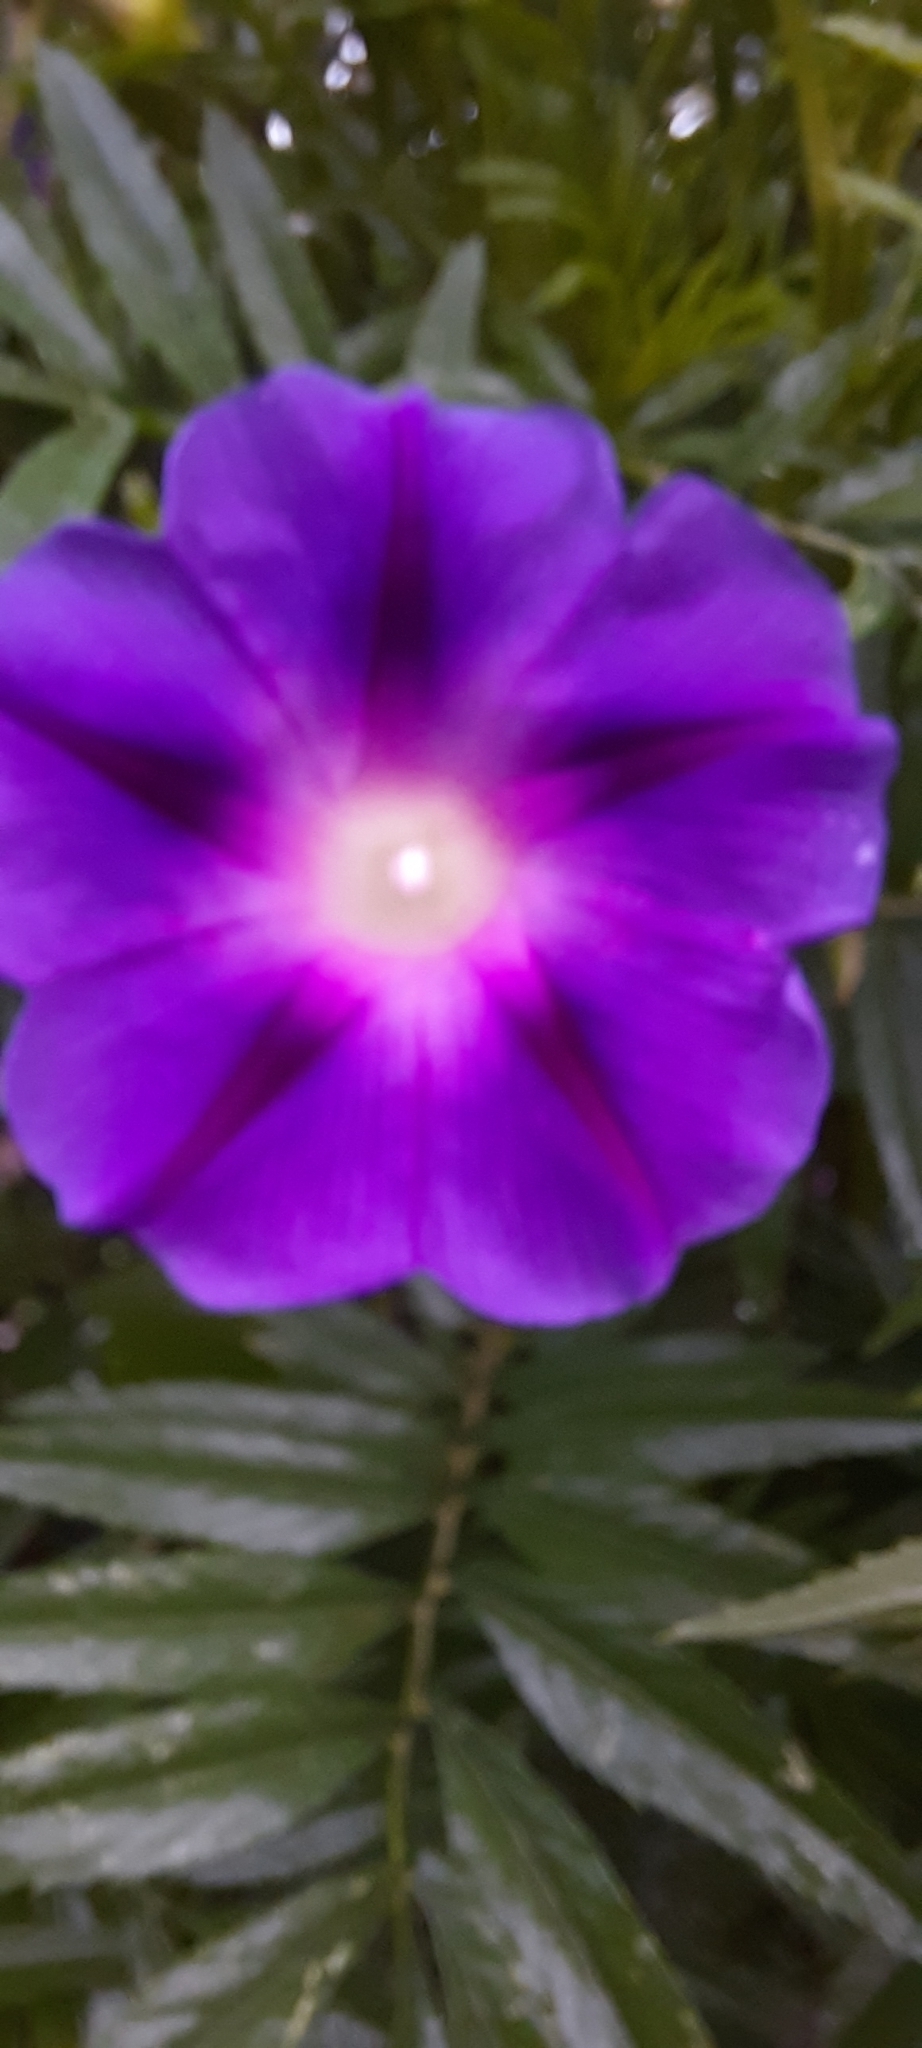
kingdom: Plantae
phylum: Tracheophyta
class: Magnoliopsida
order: Solanales
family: Convolvulaceae
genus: Ipomoea
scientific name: Ipomoea purpurea
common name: Common morning-glory
